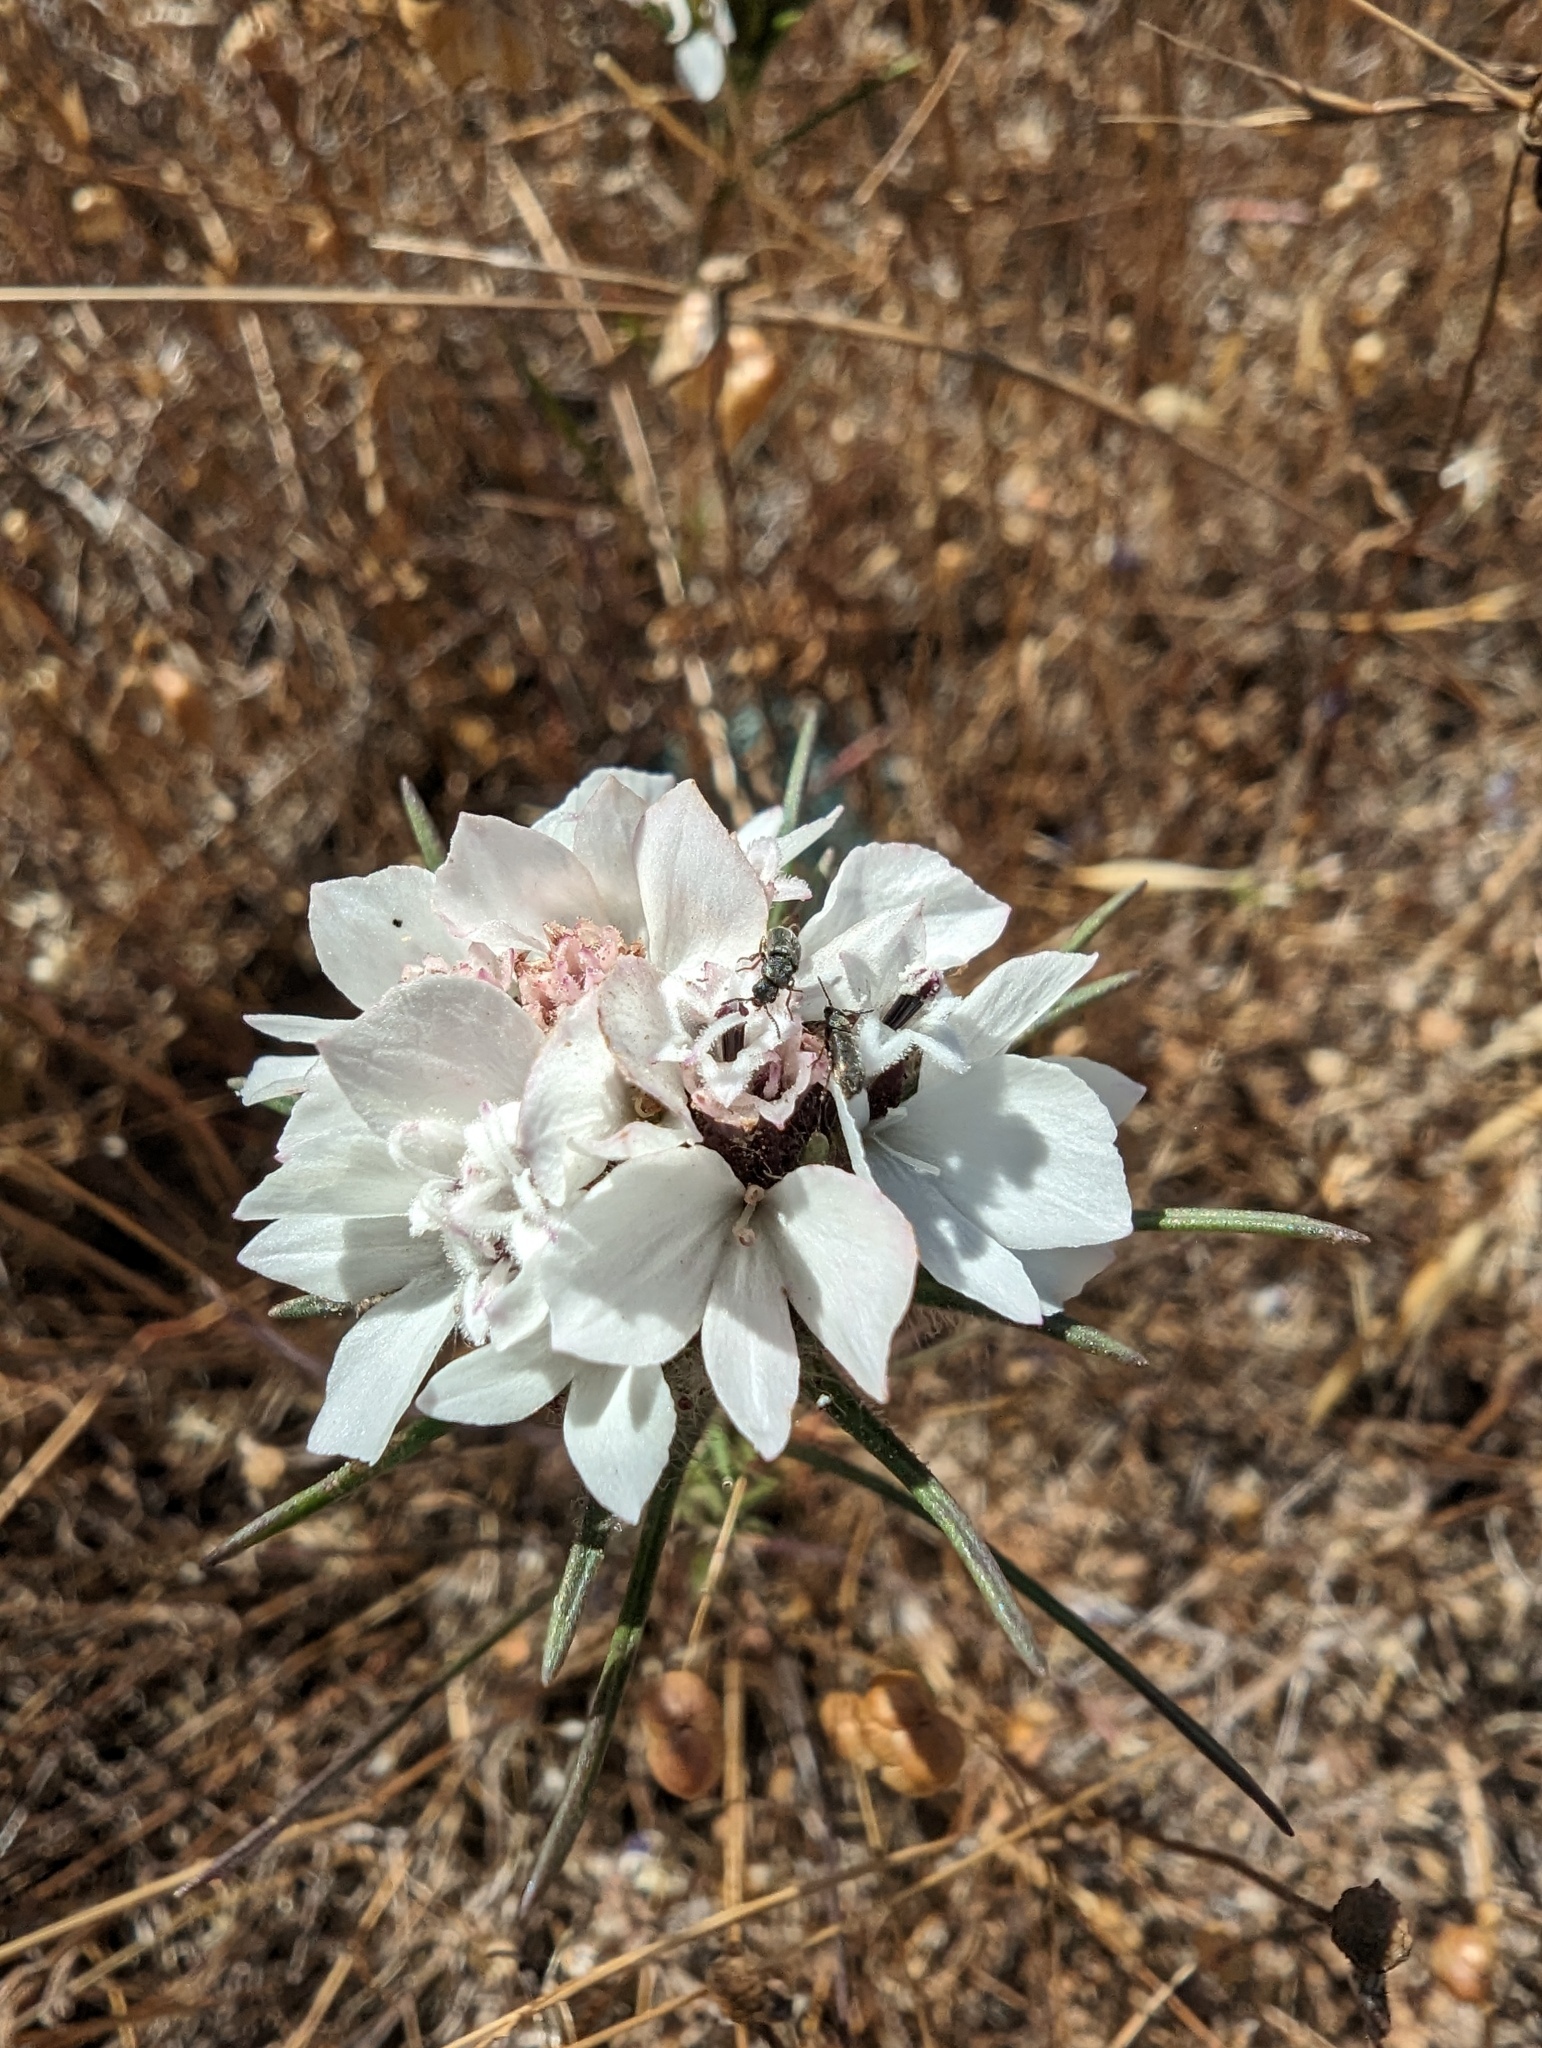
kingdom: Plantae
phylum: Tracheophyta
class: Magnoliopsida
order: Asterales
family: Asteraceae
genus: Calycadenia
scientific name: Calycadenia multiglandulosa
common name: Sticky calycadenia
